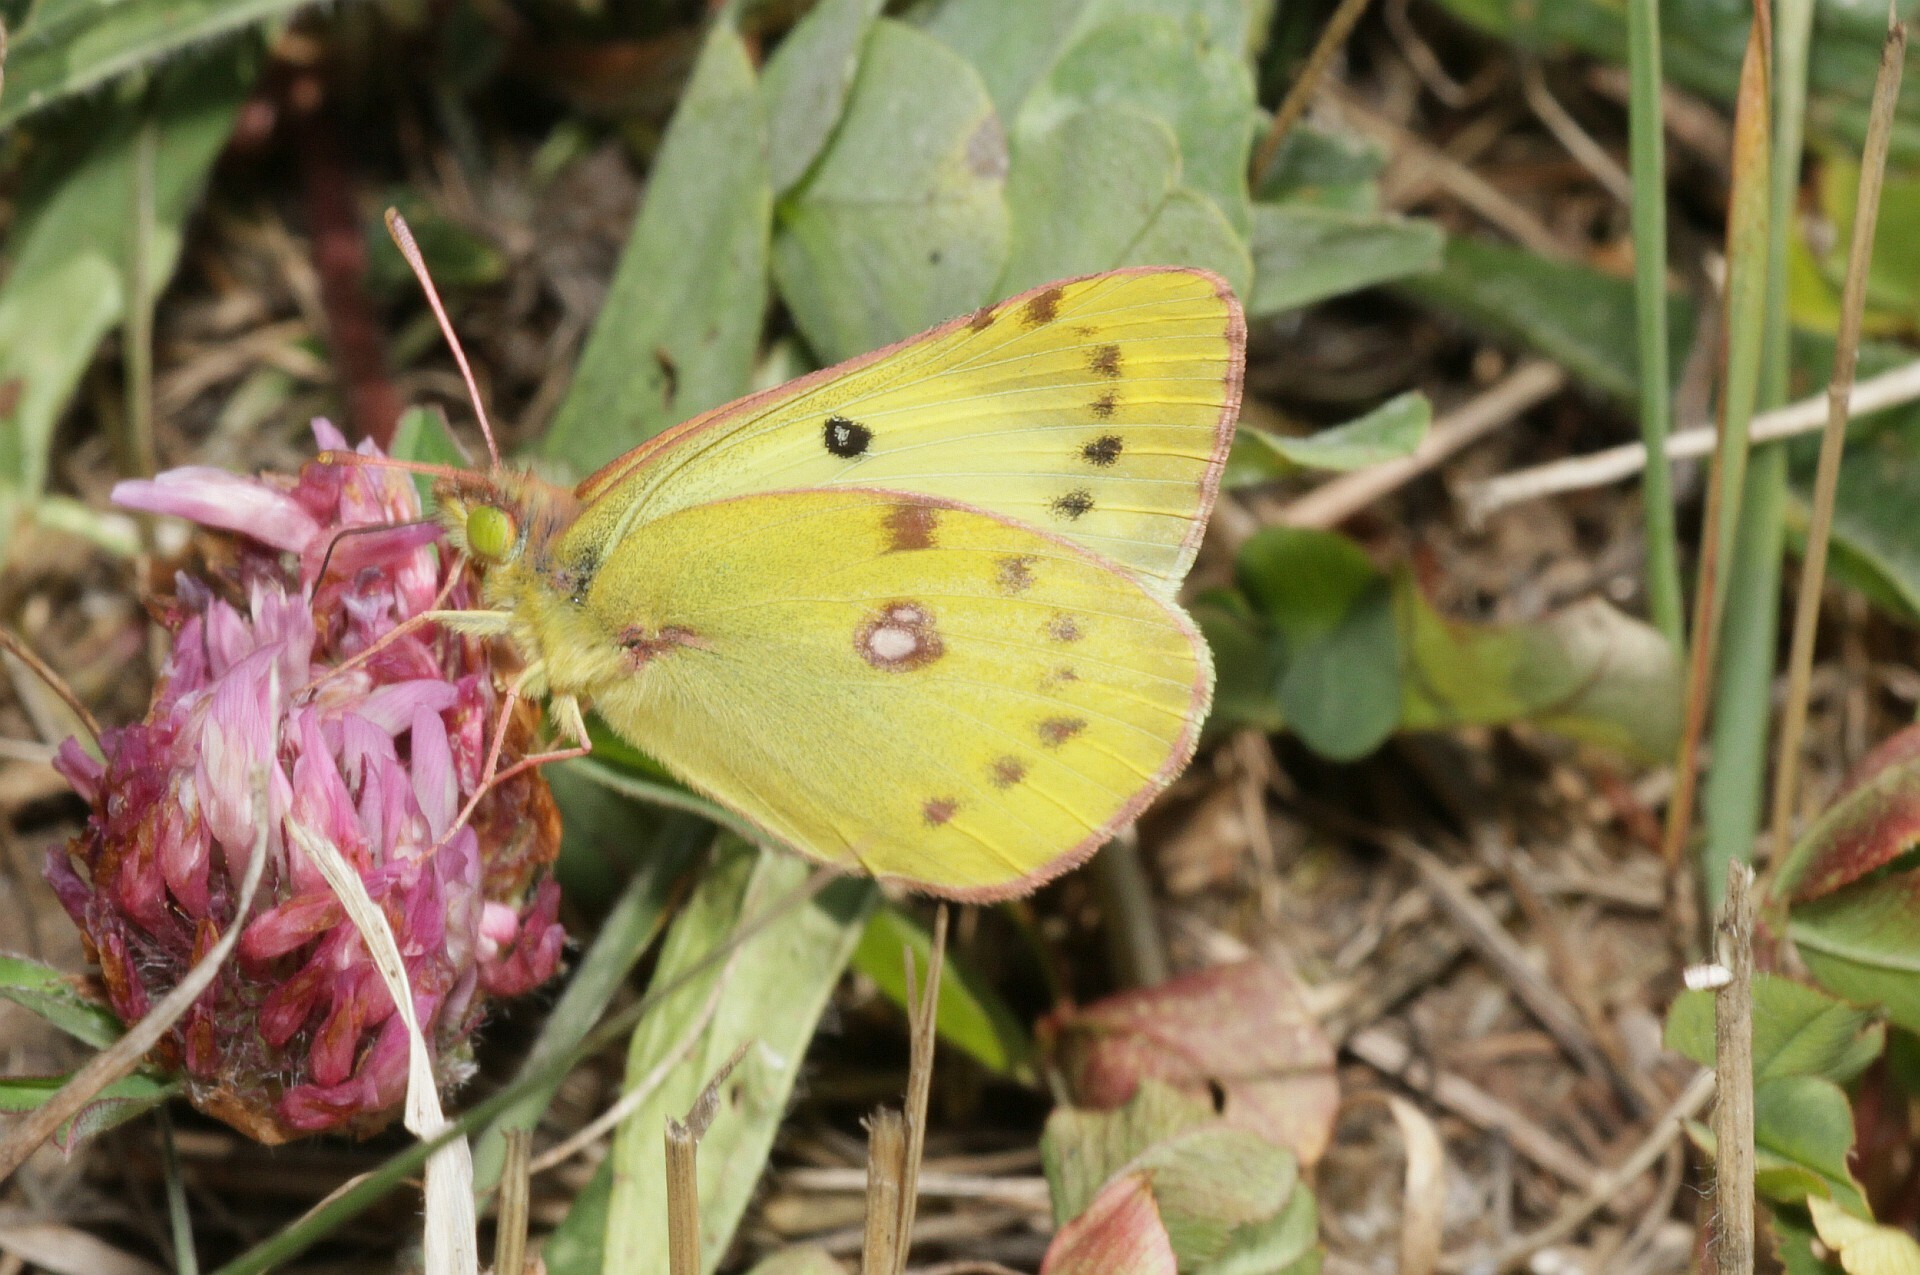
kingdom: Animalia
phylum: Arthropoda
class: Insecta
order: Lepidoptera
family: Pieridae
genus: Colias
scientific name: Colias hyale
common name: Pale clouded yellow
